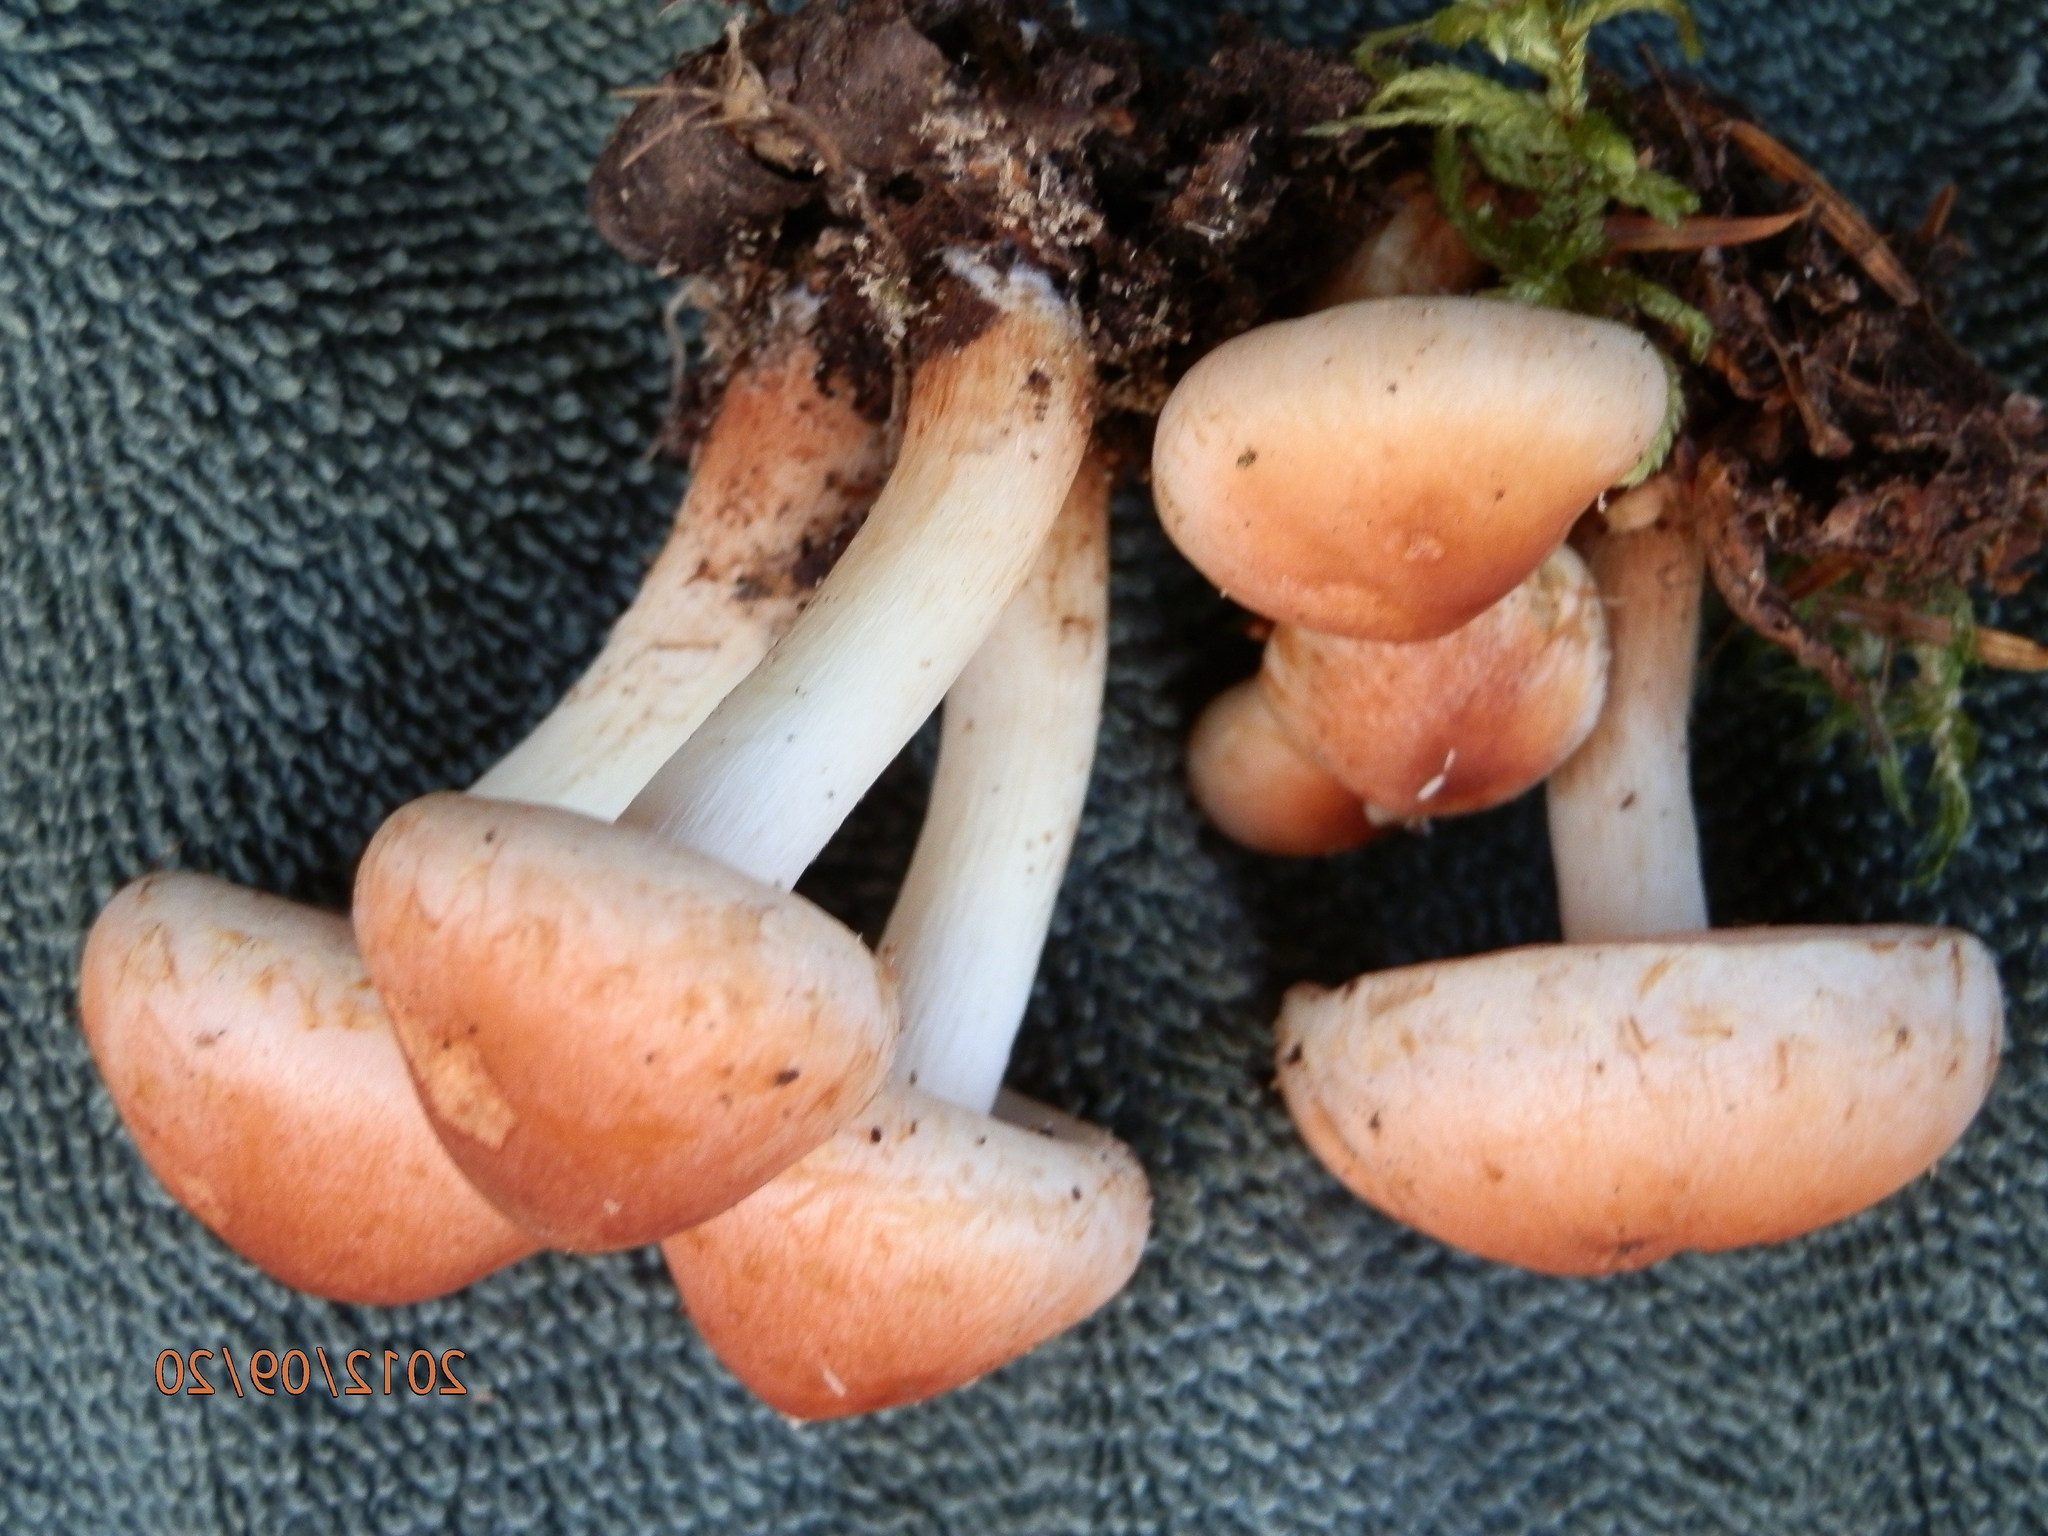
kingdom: Fungi
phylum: Basidiomycota
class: Agaricomycetes
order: Agaricales
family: Strophariaceae
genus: Hypholoma
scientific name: Hypholoma lateritium
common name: Brick caps
